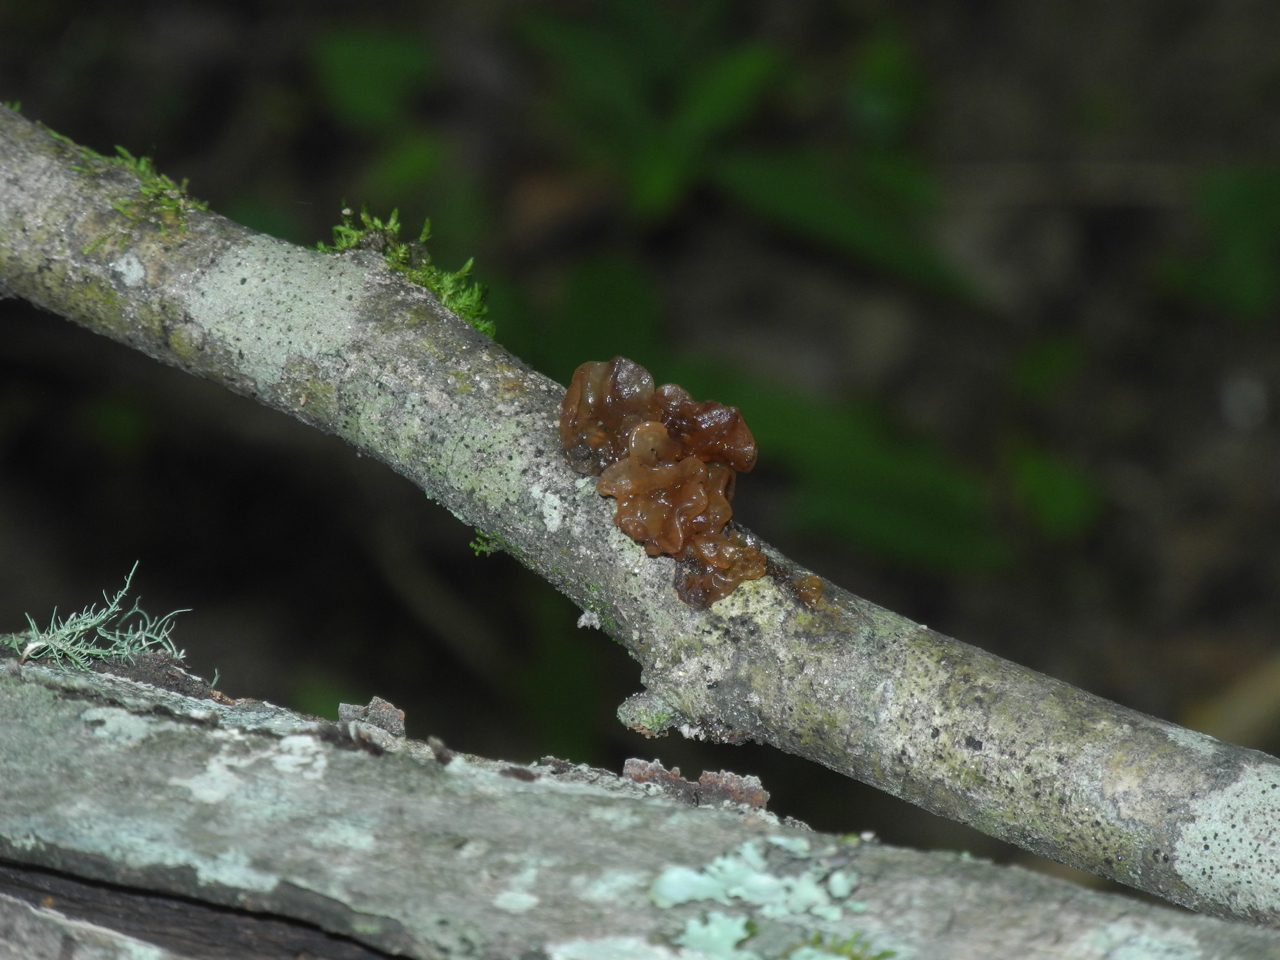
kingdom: Fungi
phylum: Basidiomycota
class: Tremellomycetes
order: Tremellales
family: Tremellaceae
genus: Phaeotremella
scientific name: Phaeotremella foliacea
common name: Leafy brain
